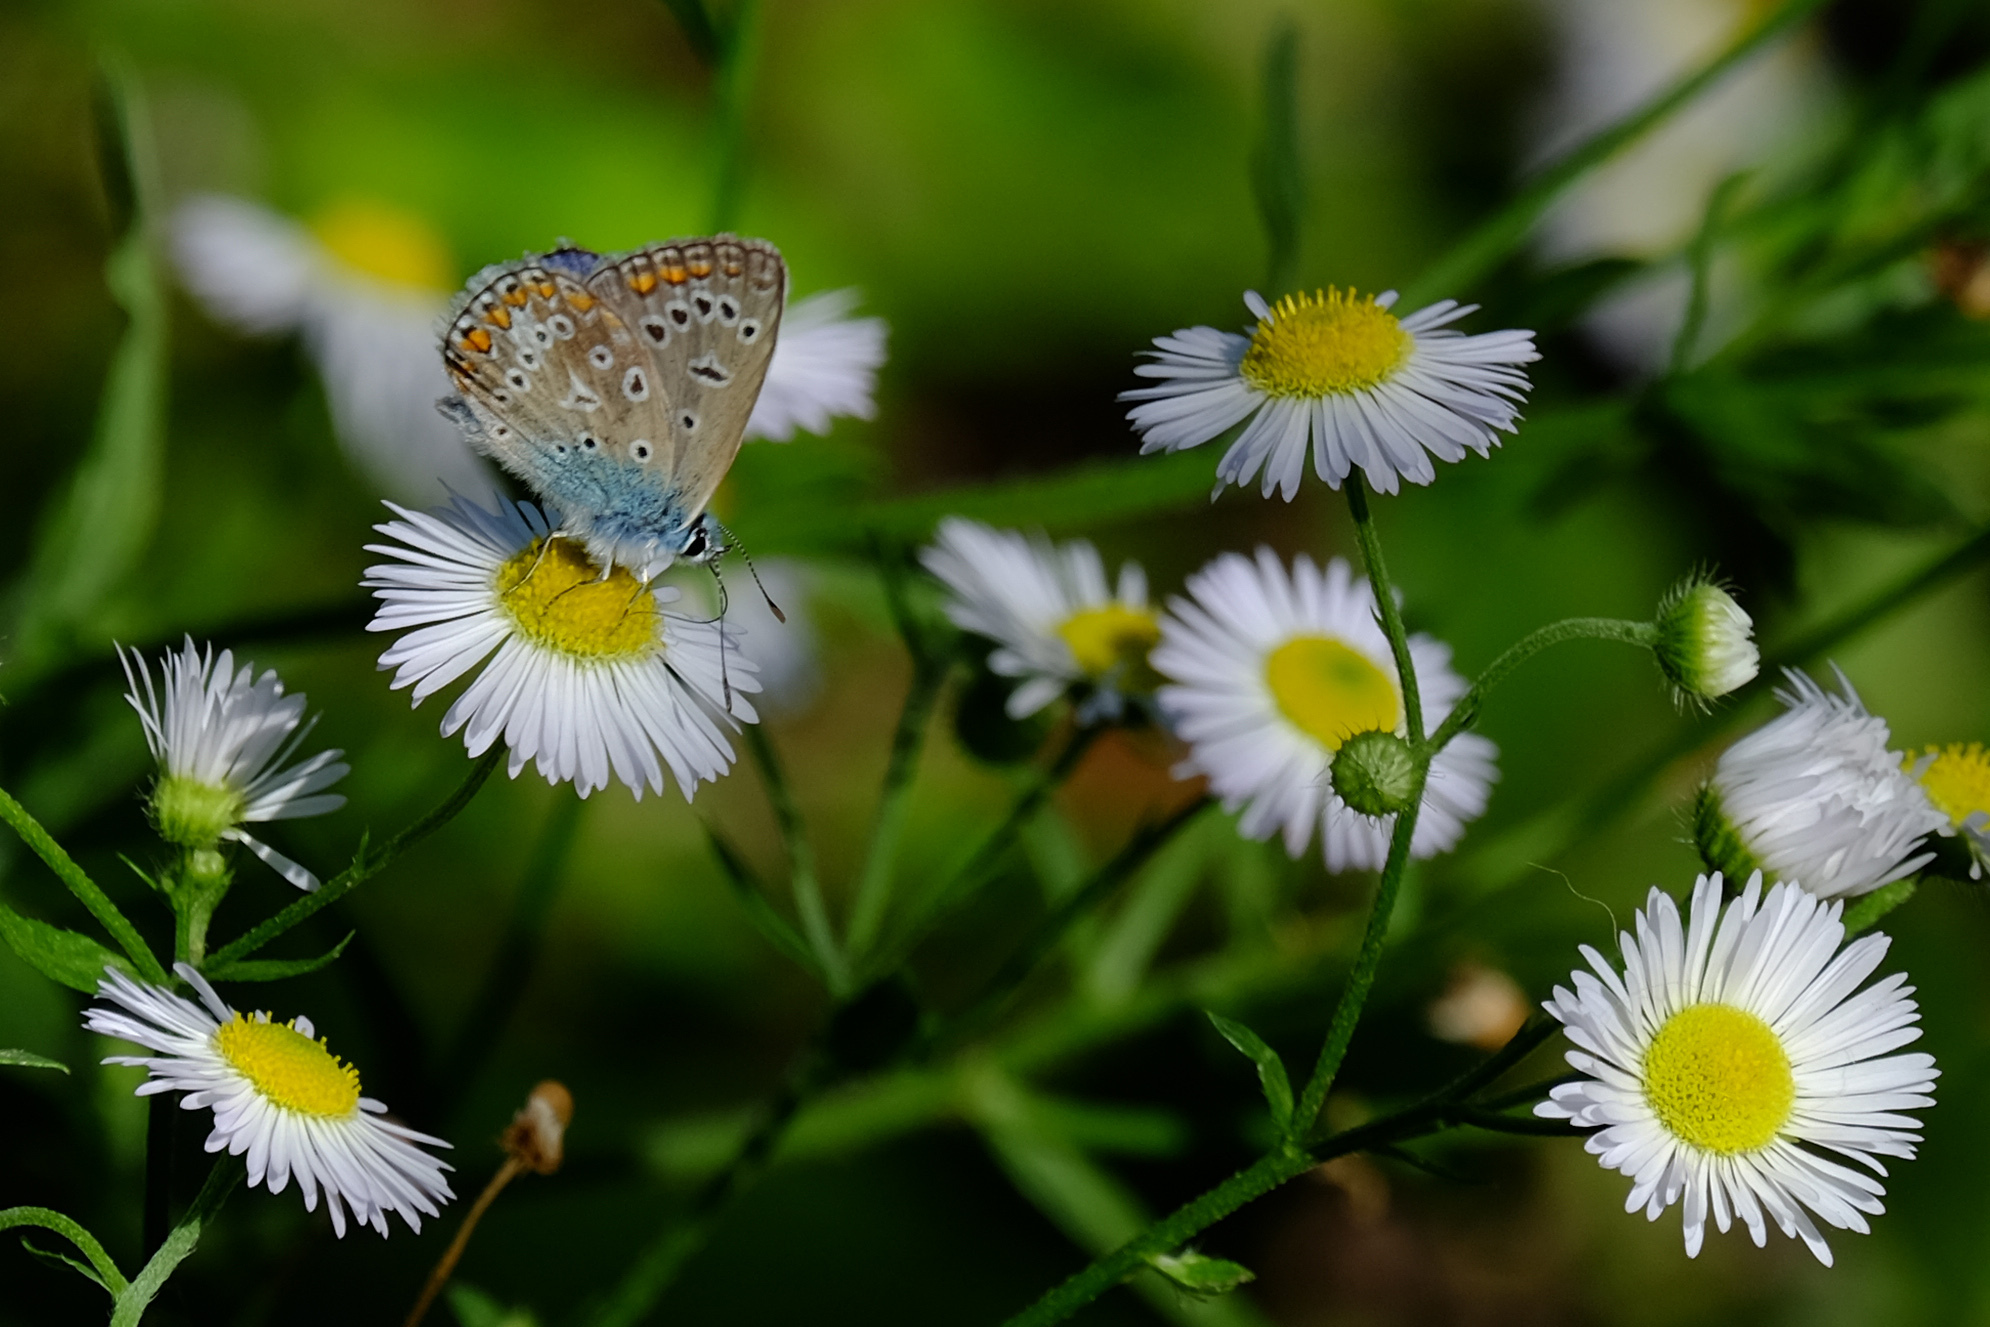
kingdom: Animalia
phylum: Arthropoda
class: Insecta
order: Lepidoptera
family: Lycaenidae
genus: Polyommatus
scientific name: Polyommatus icarus
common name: Common blue
